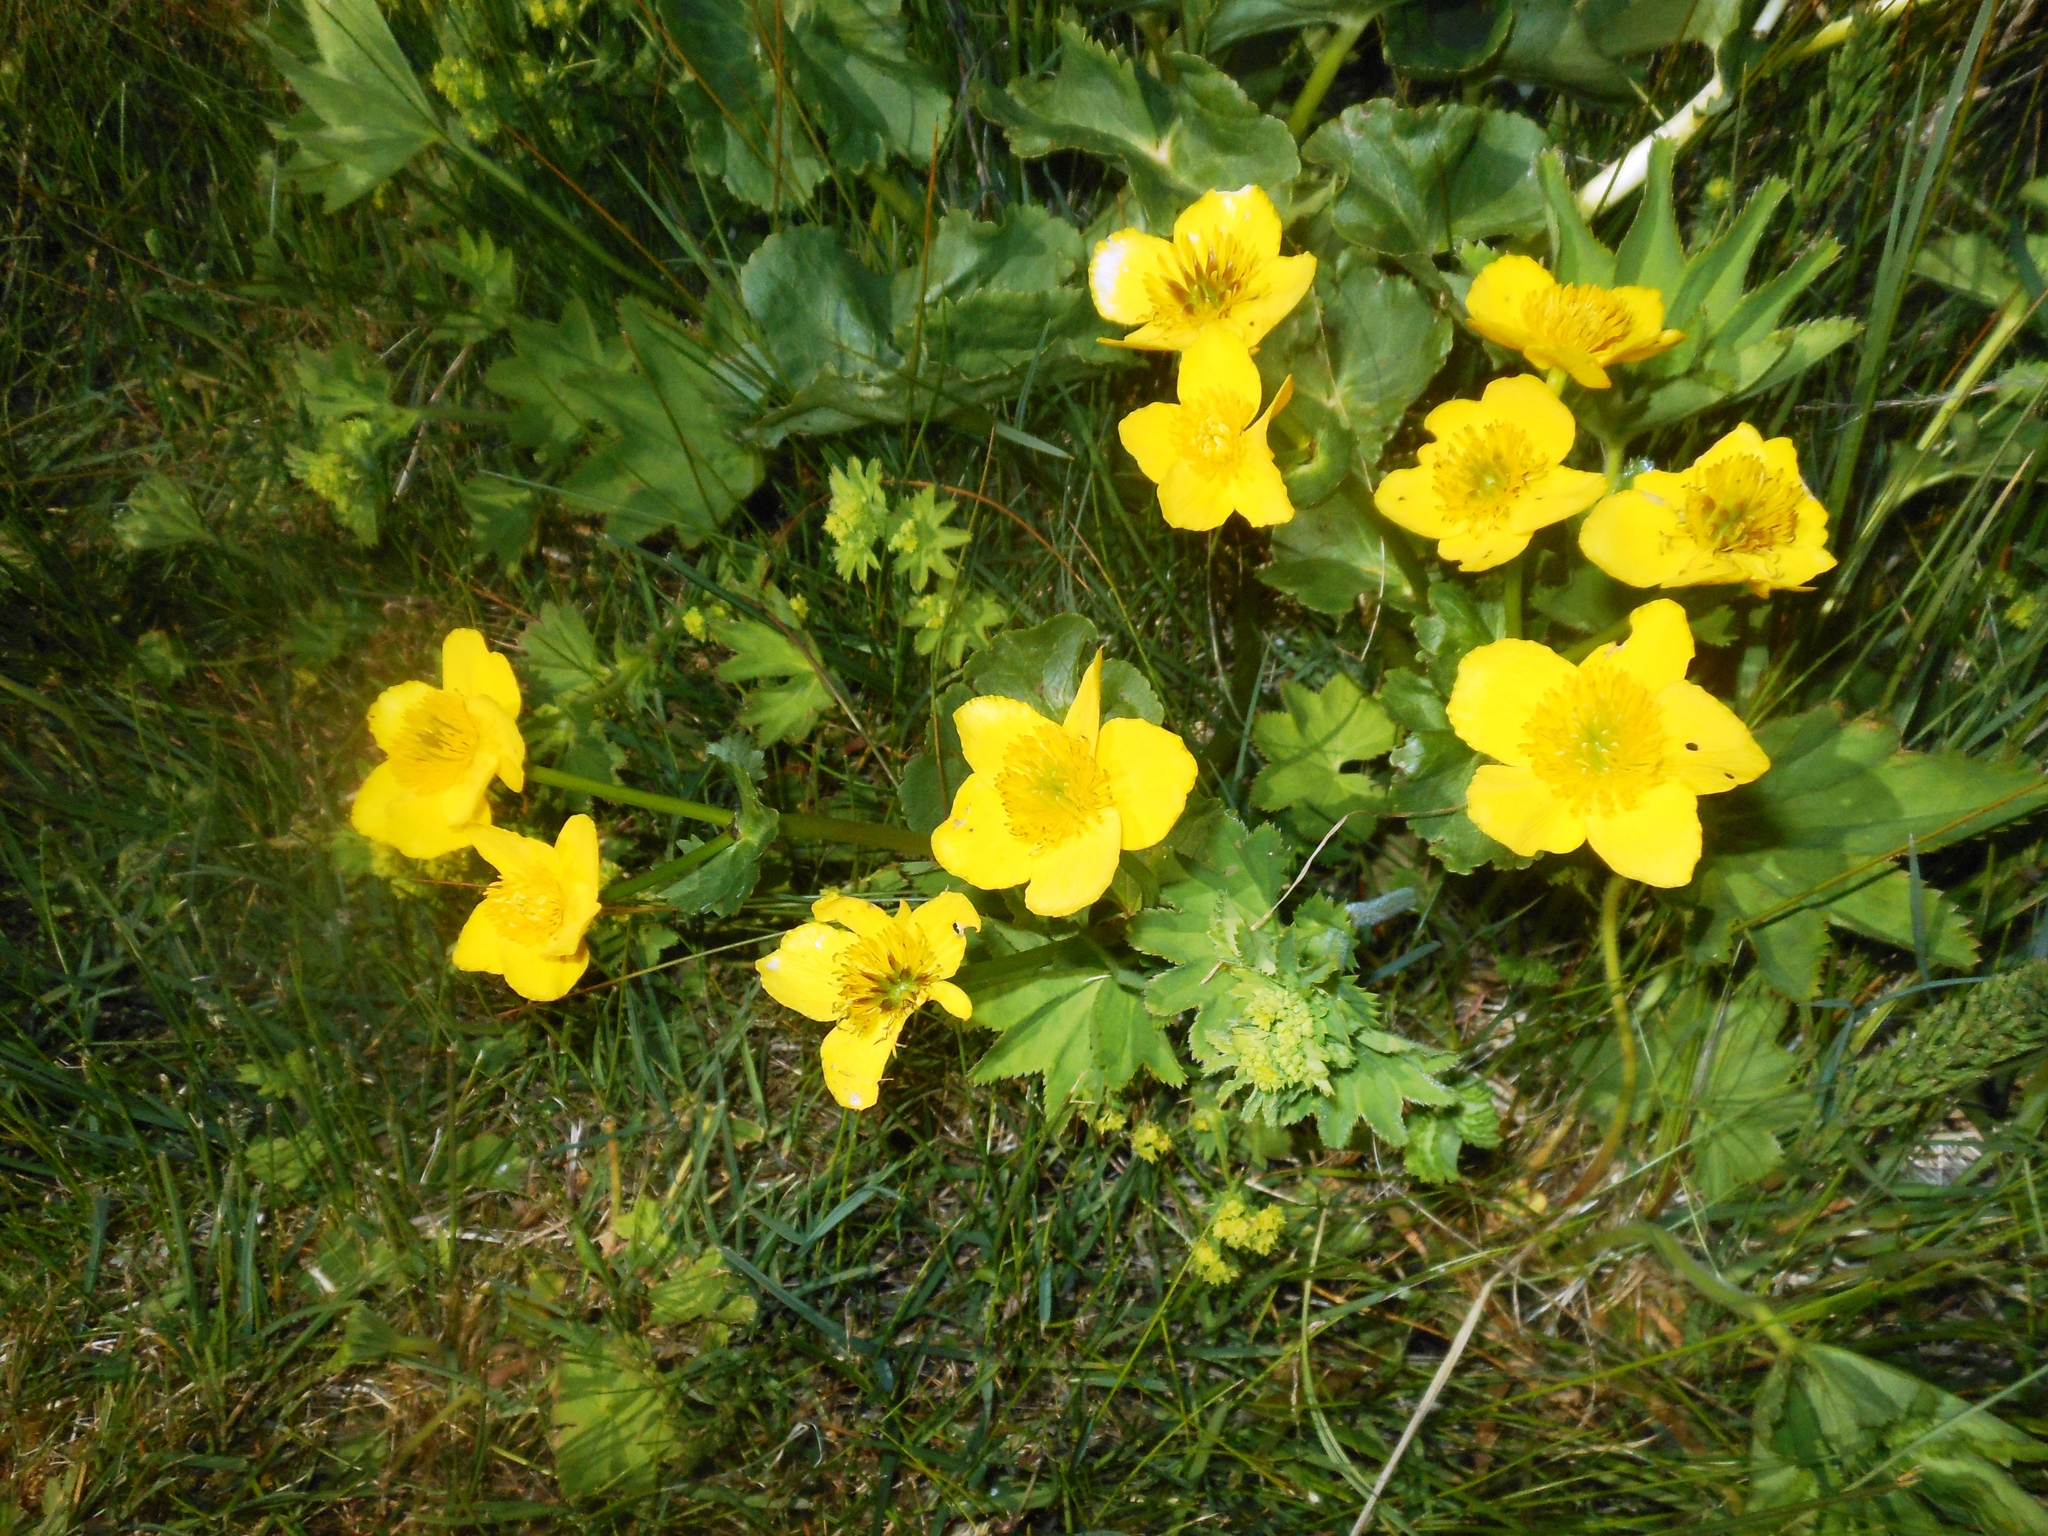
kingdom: Plantae
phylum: Tracheophyta
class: Magnoliopsida
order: Ranunculales
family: Ranunculaceae
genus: Caltha
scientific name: Caltha palustris
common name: Marsh marigold
